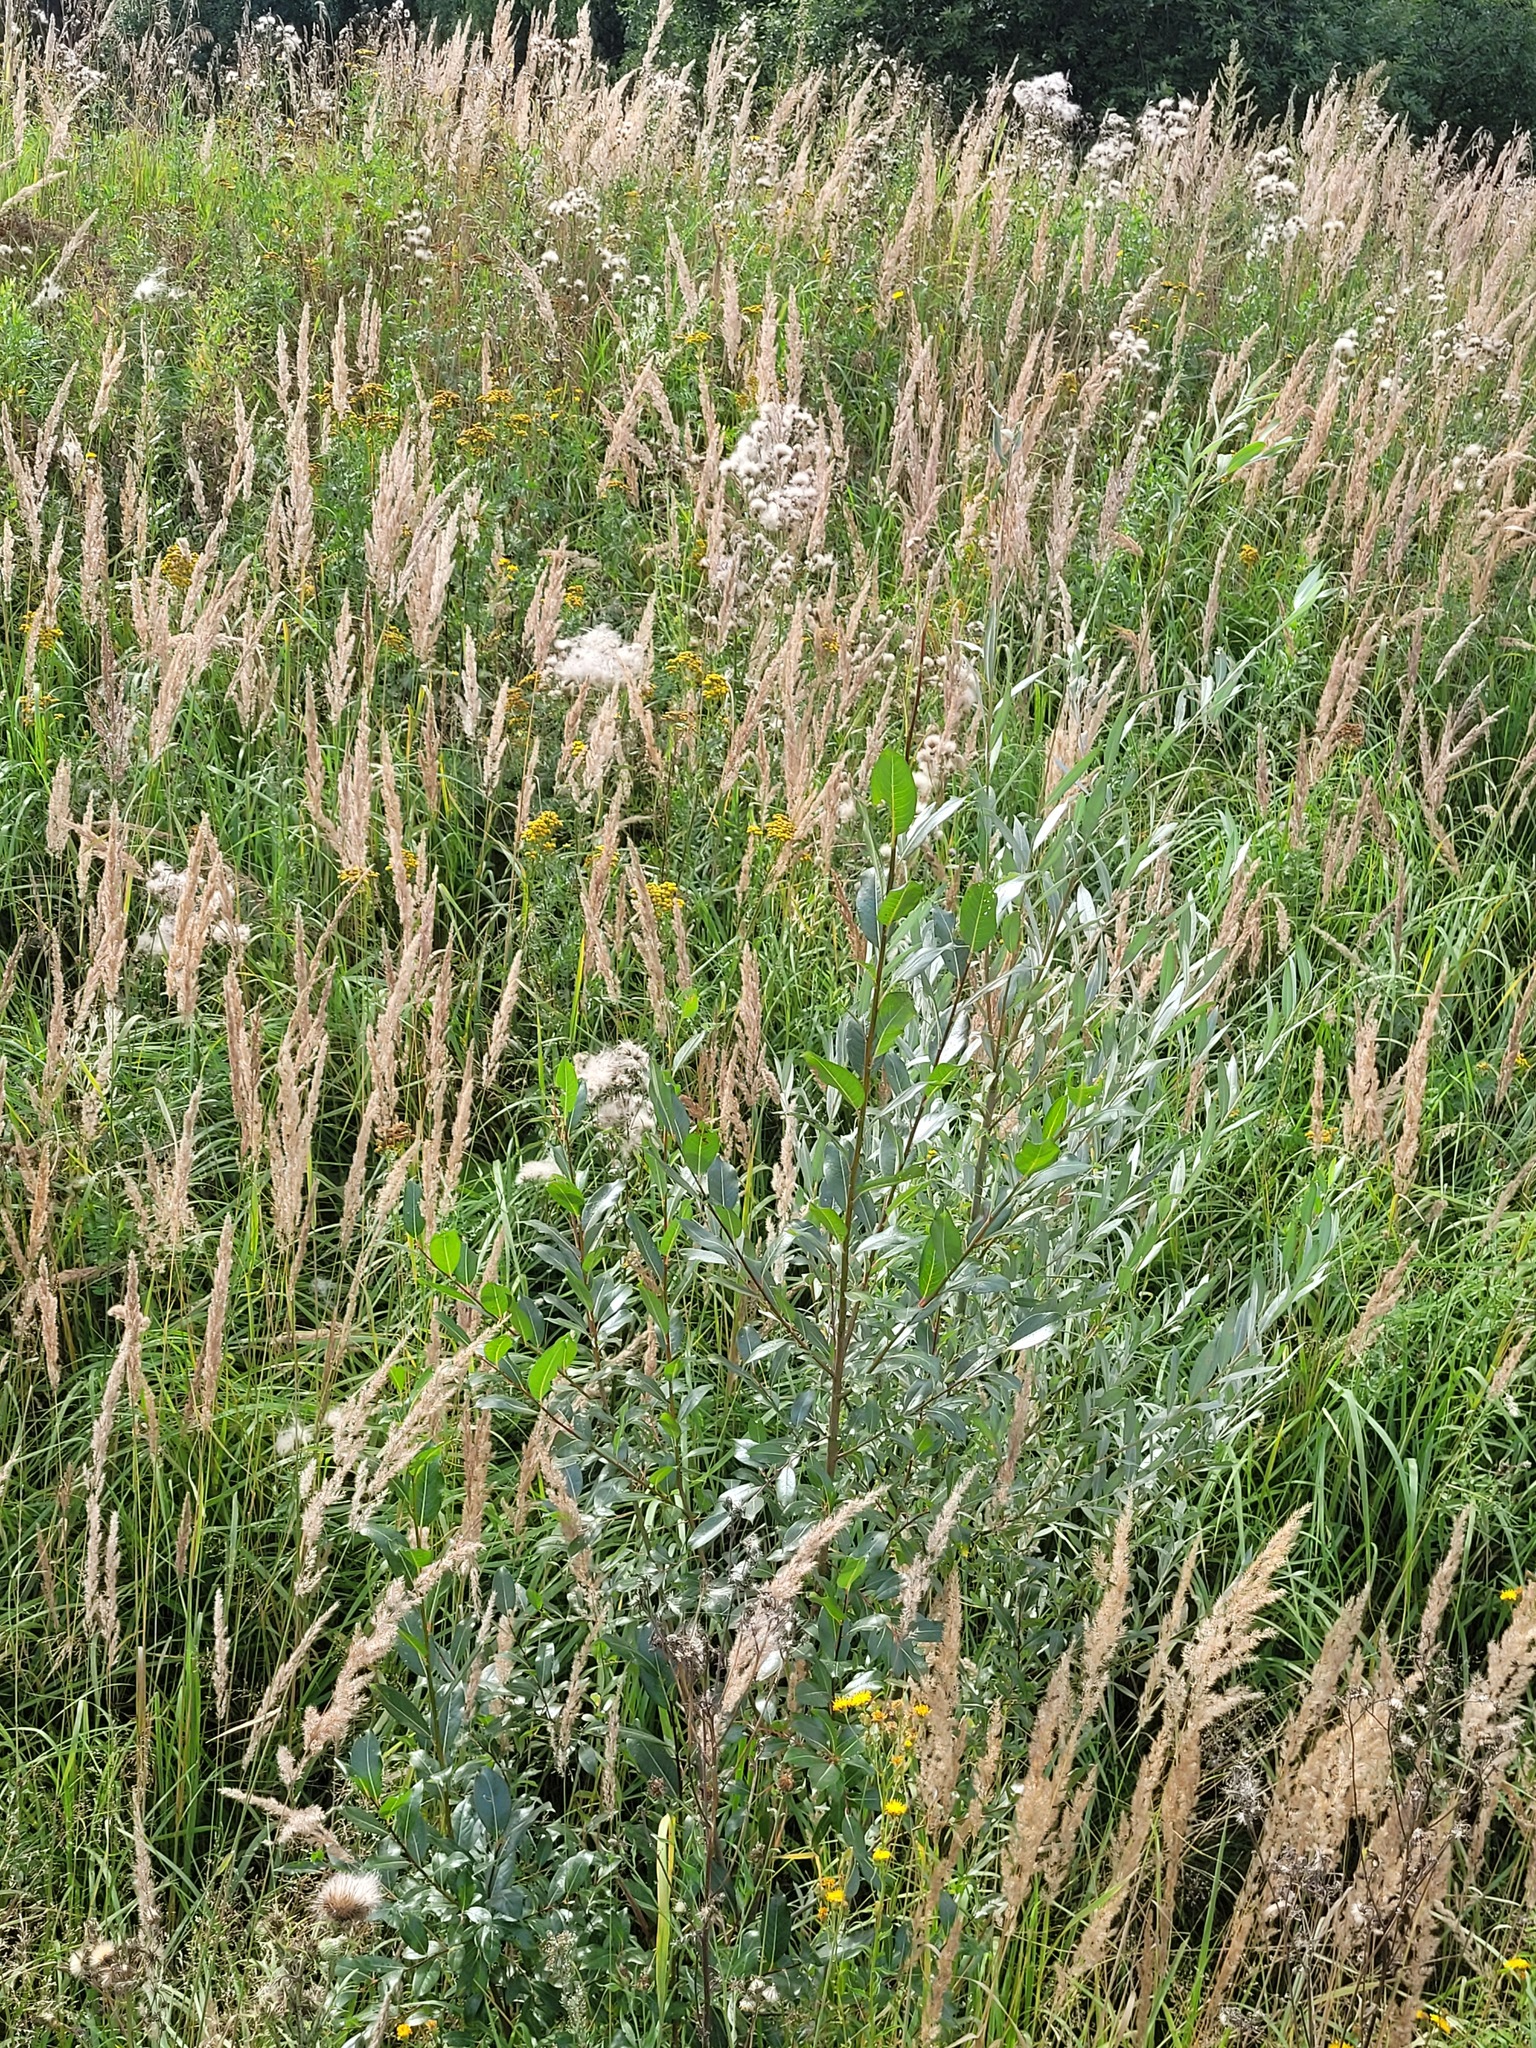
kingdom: Plantae
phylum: Tracheophyta
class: Magnoliopsida
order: Malpighiales
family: Salicaceae
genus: Salix
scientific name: Salix pentandra
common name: Bay willow
